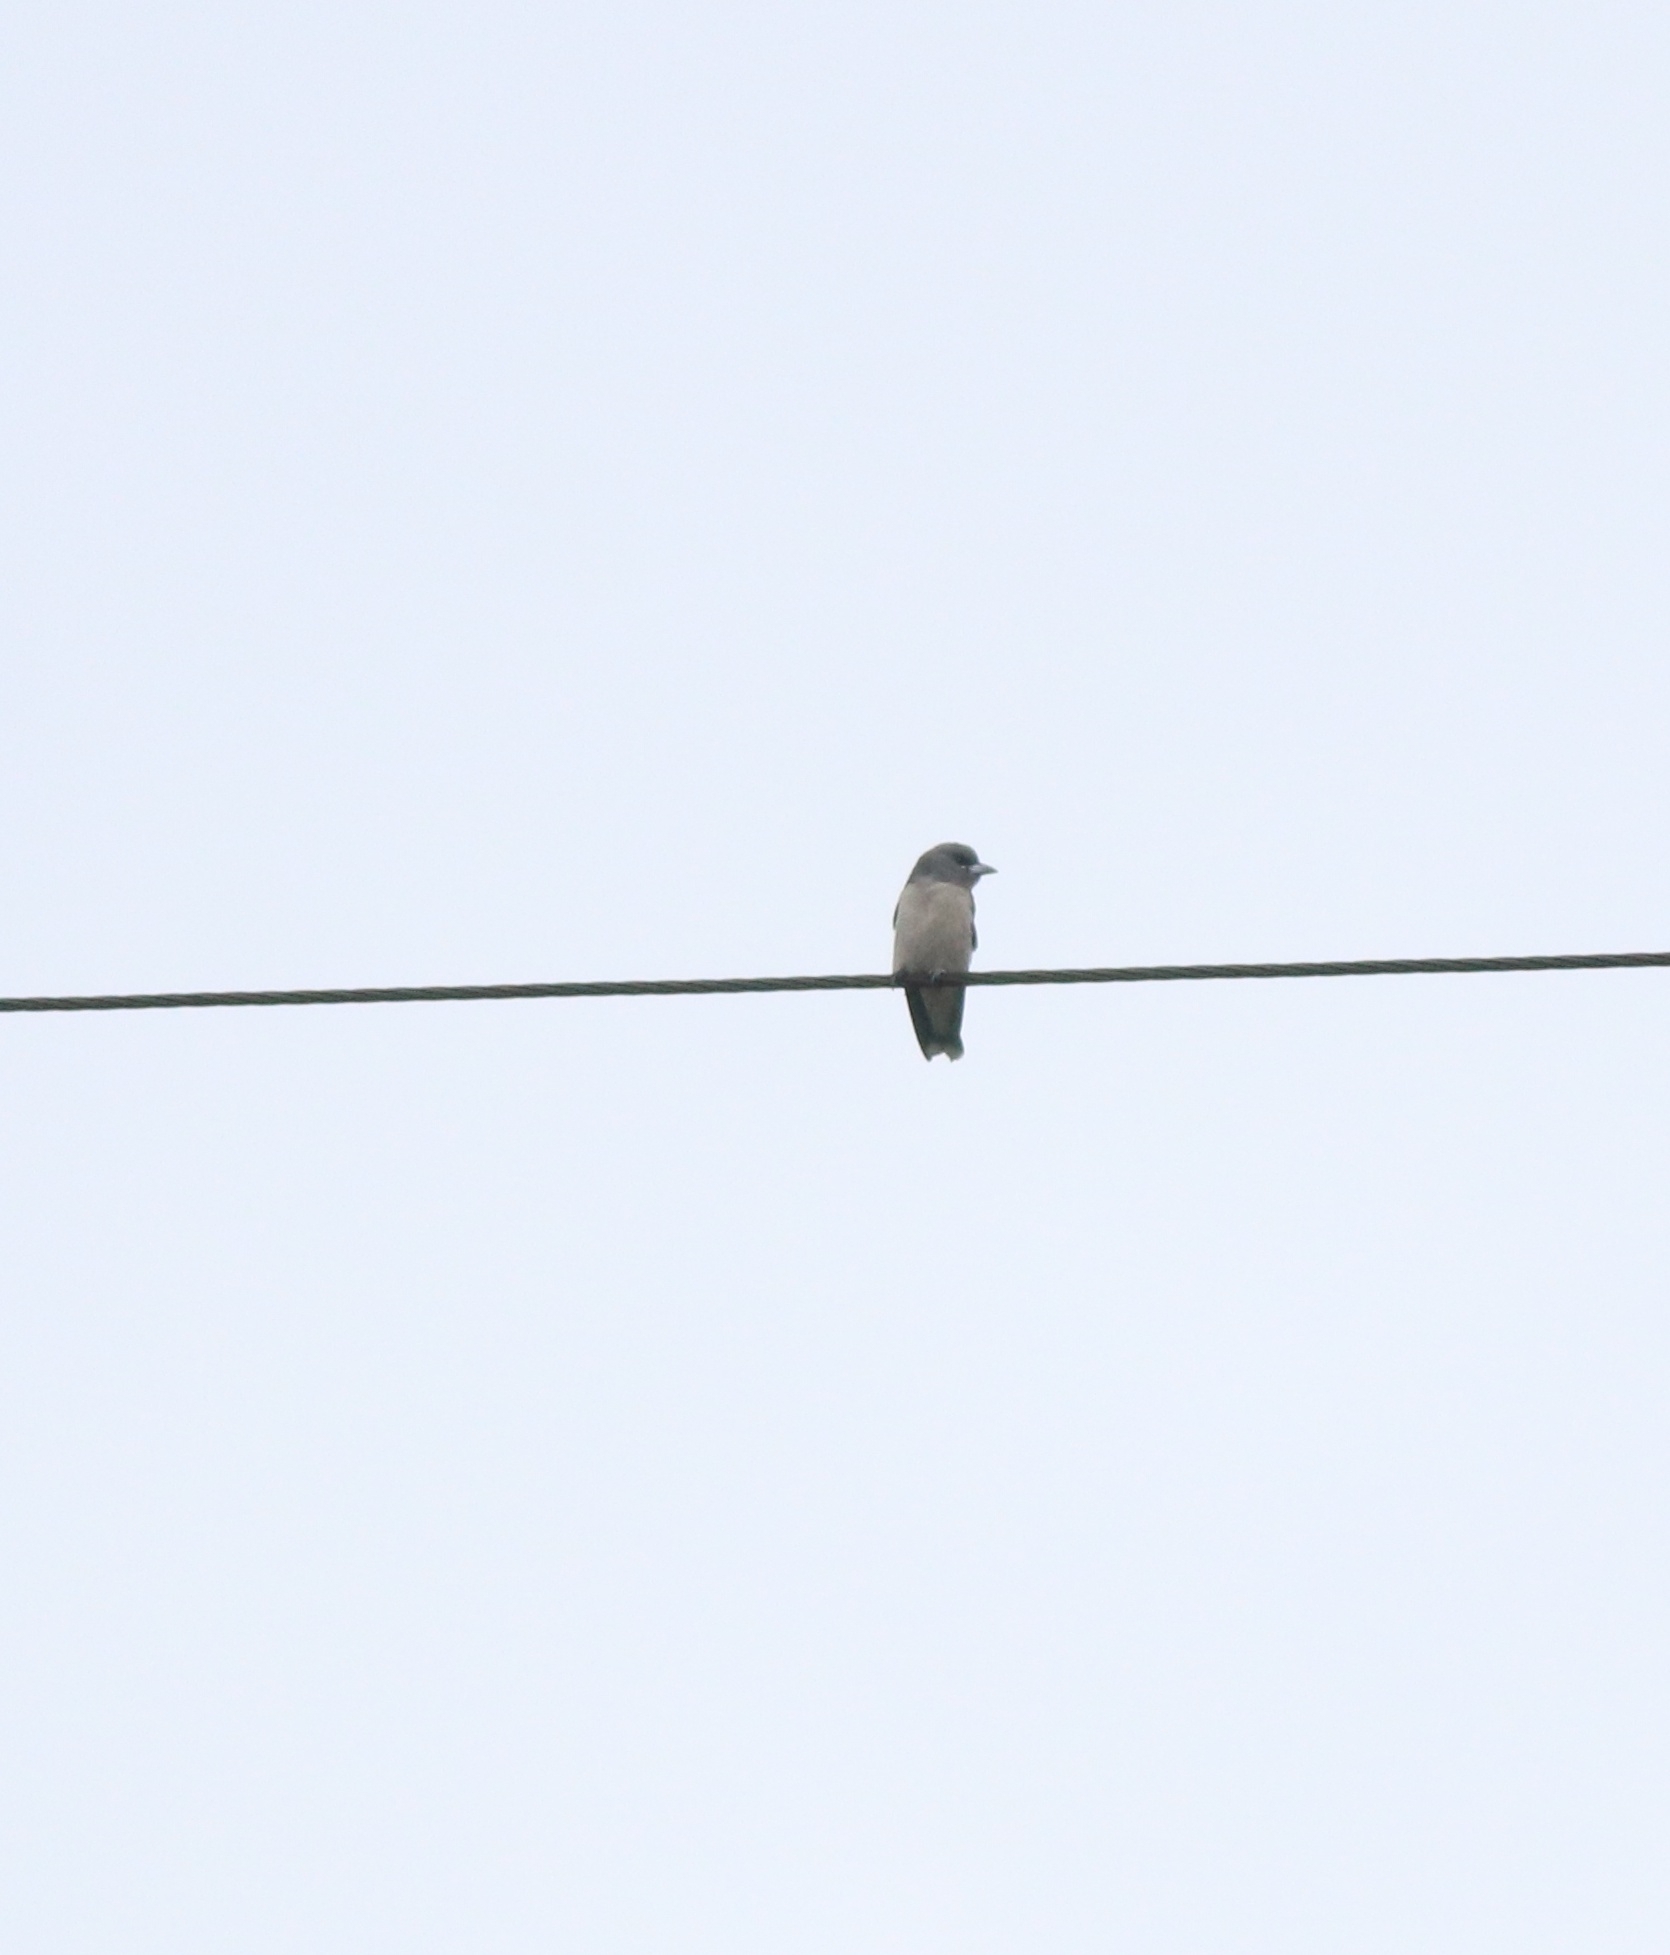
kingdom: Animalia
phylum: Chordata
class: Aves
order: Passeriformes
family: Artamidae
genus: Artamus
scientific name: Artamus fuscus
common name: Ashy woodswallow
